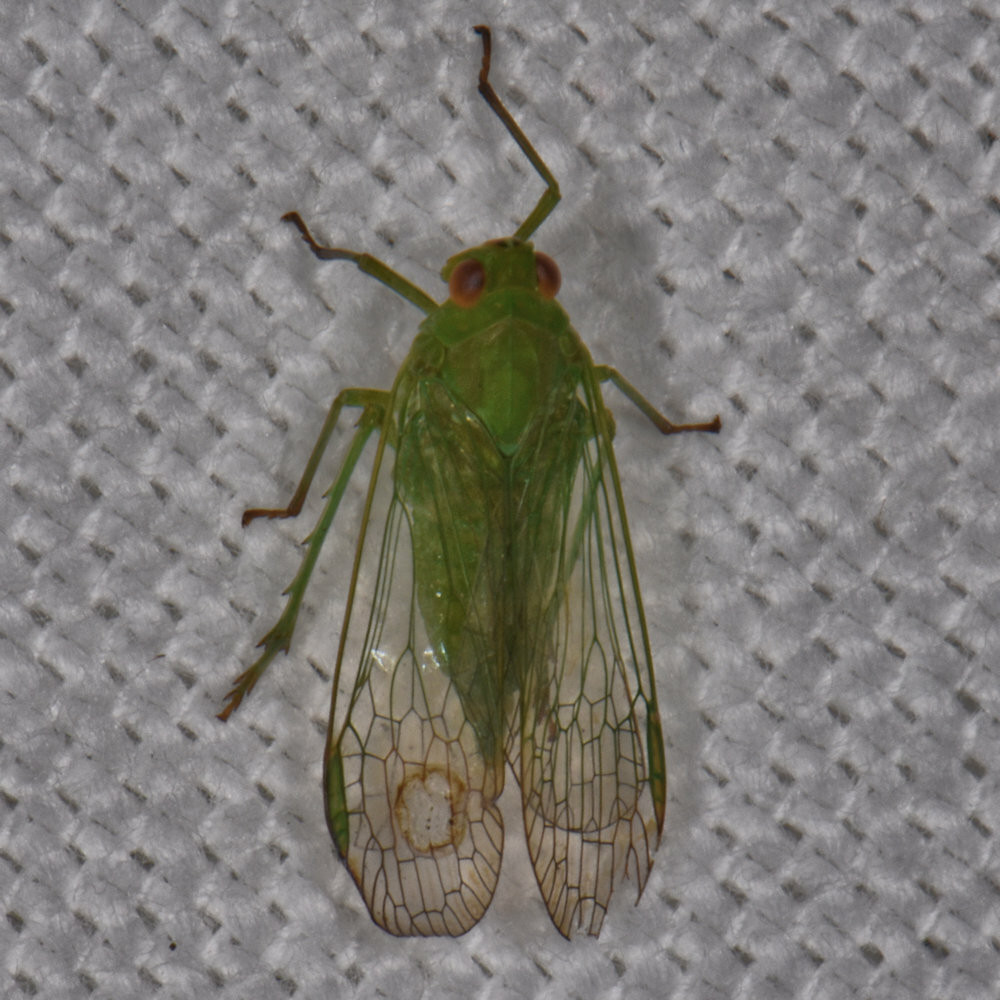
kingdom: Animalia
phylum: Arthropoda
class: Insecta
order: Hemiptera
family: Dictyopharidae
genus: Cuernavaca
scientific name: Cuernavaca
